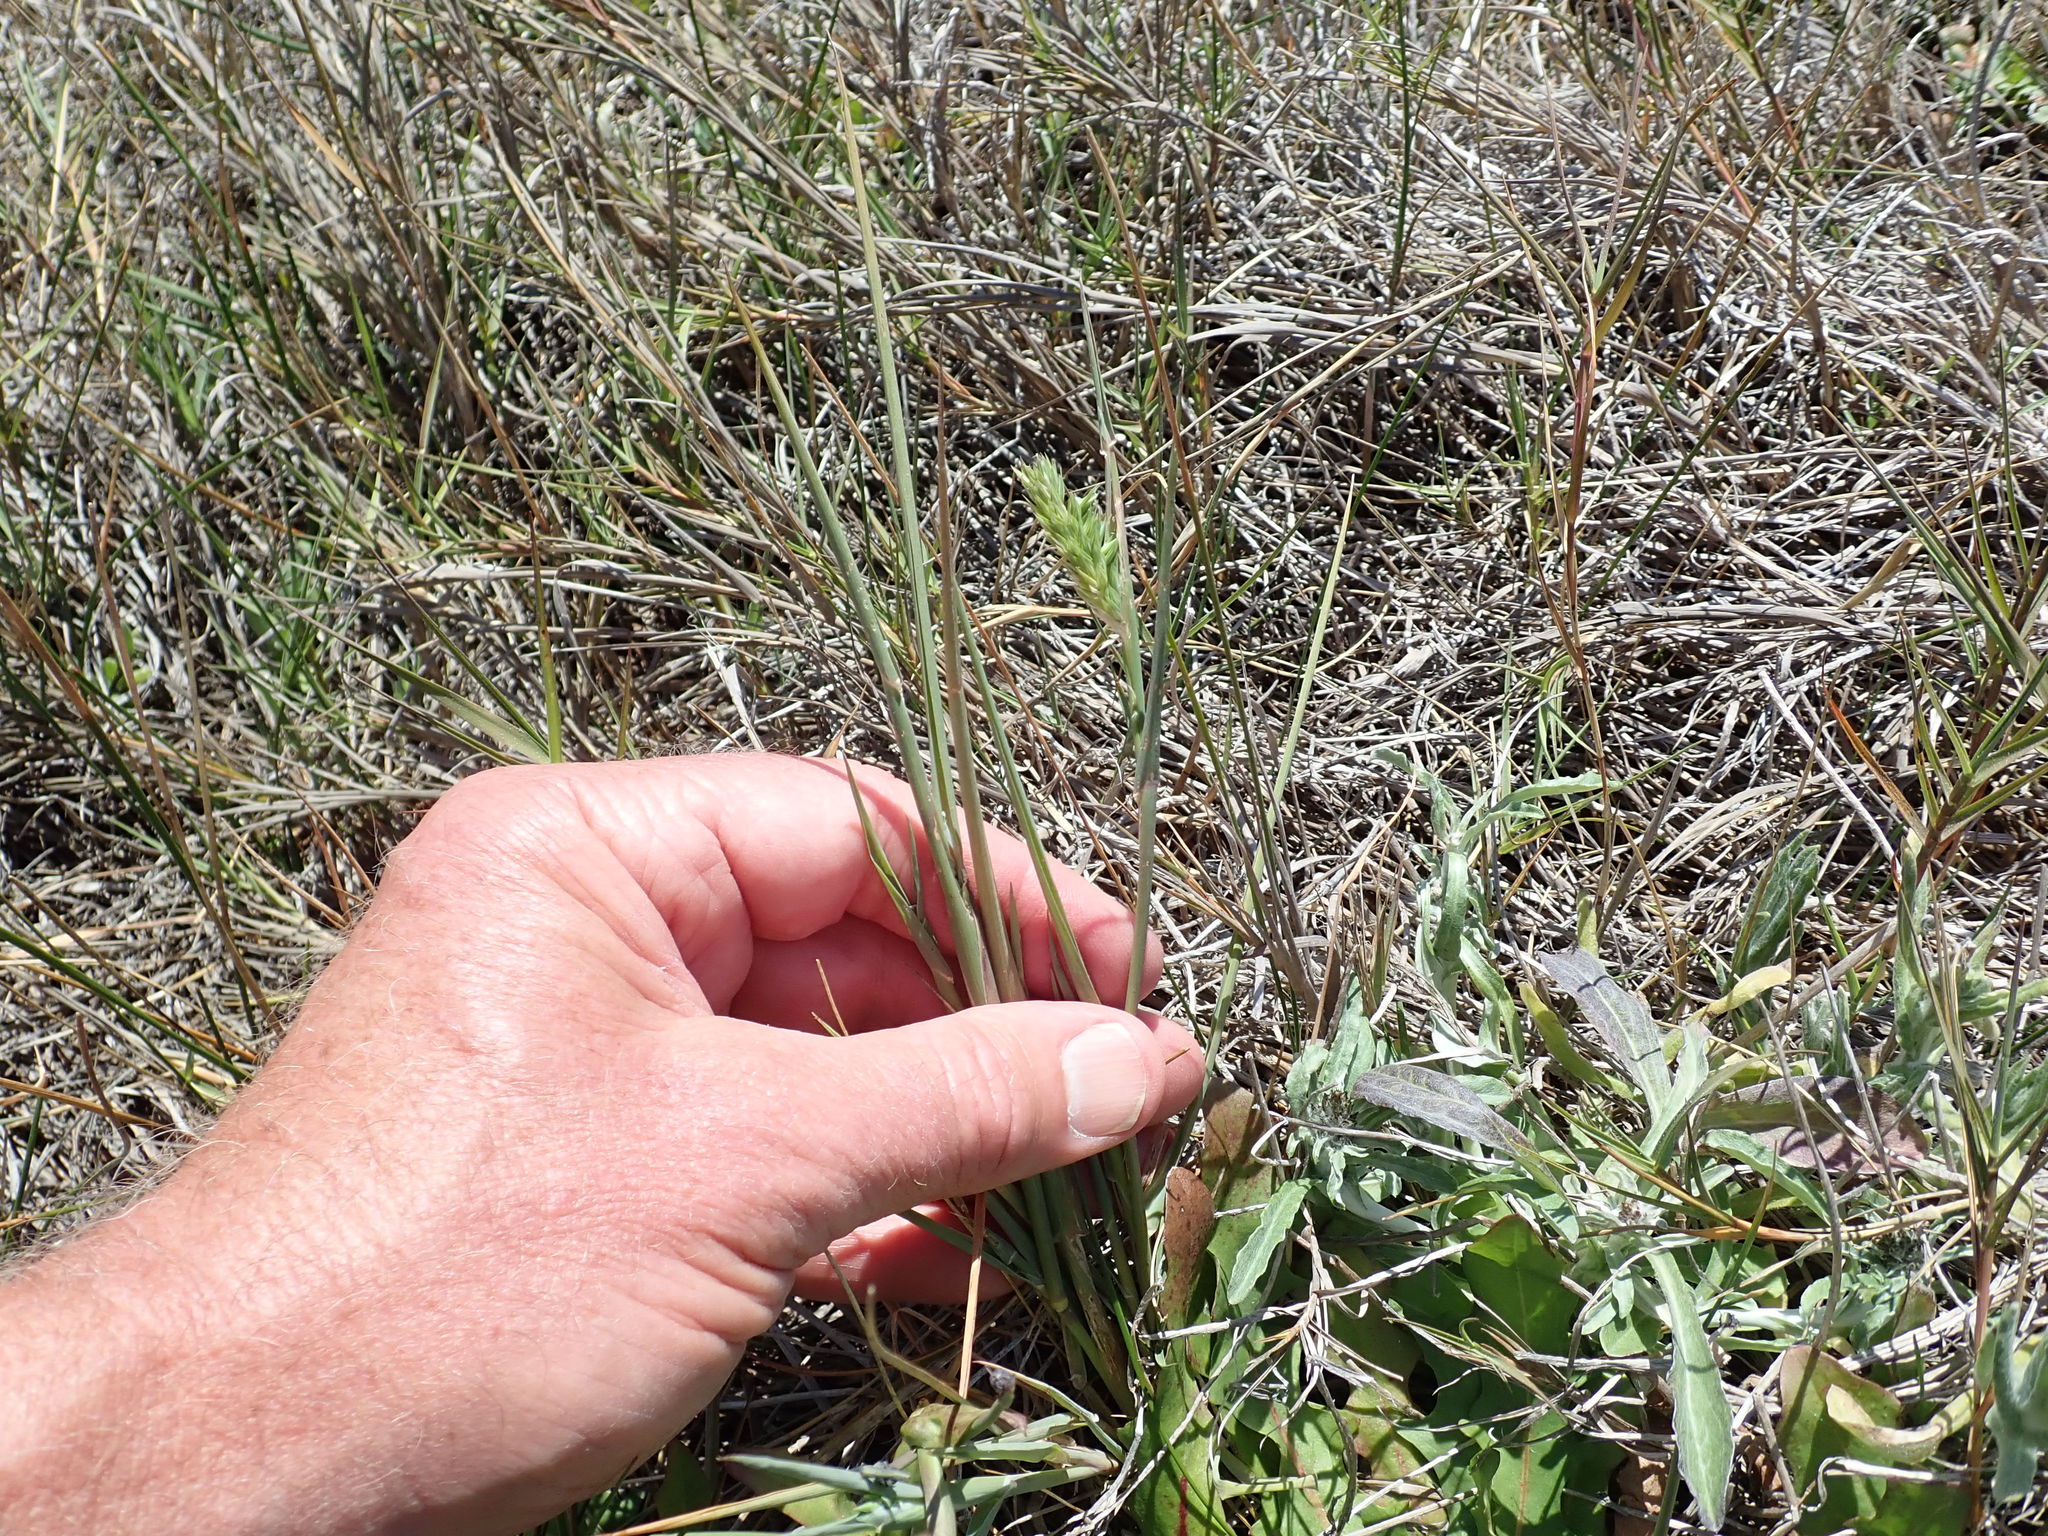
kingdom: Plantae
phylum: Tracheophyta
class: Liliopsida
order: Poales
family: Poaceae
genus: Phalaris
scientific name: Phalaris aquatica
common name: Bulbous canary-grass
